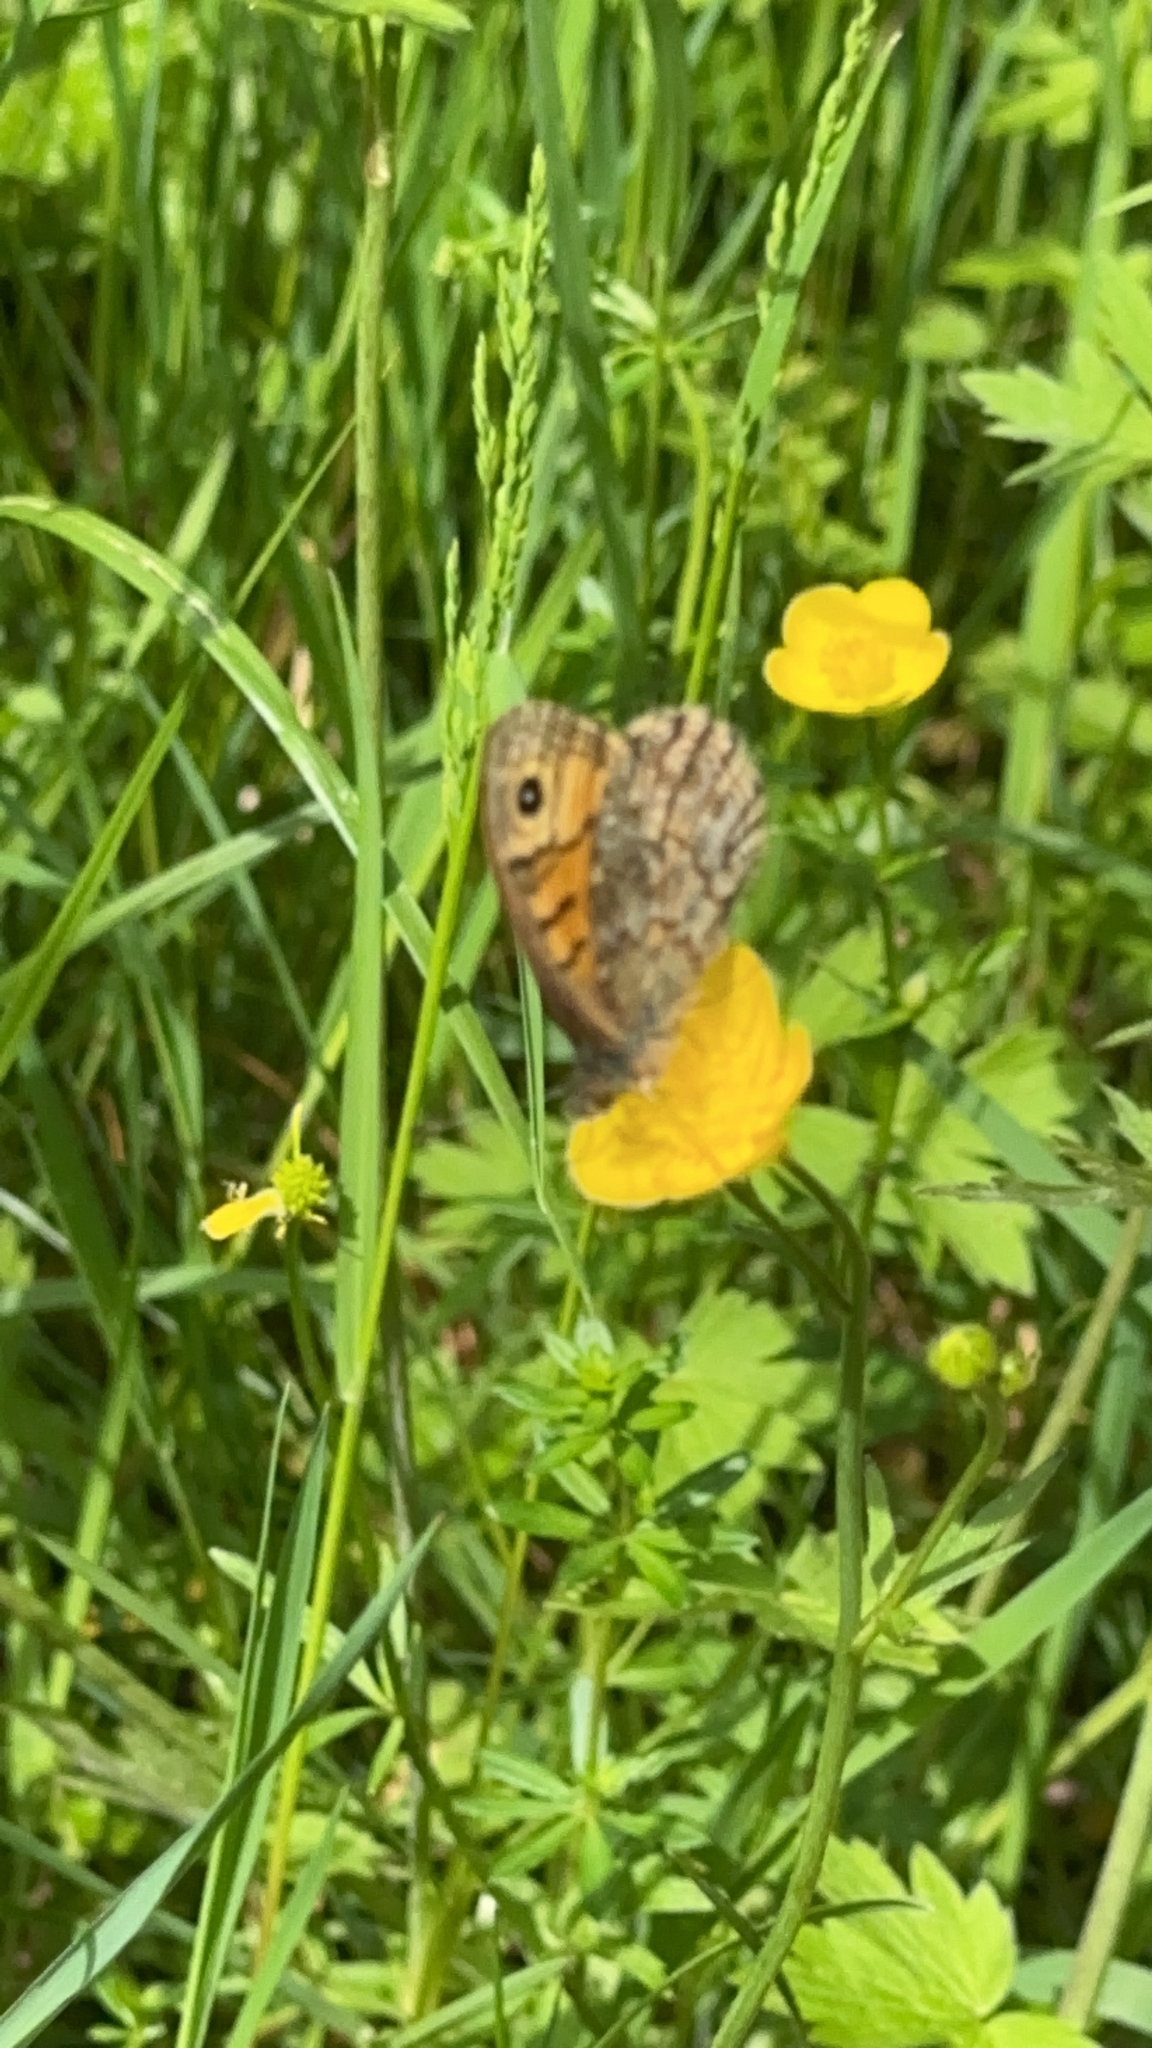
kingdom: Animalia
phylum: Arthropoda
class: Insecta
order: Lepidoptera
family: Nymphalidae
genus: Pararge
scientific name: Pararge Lasiommata megera
